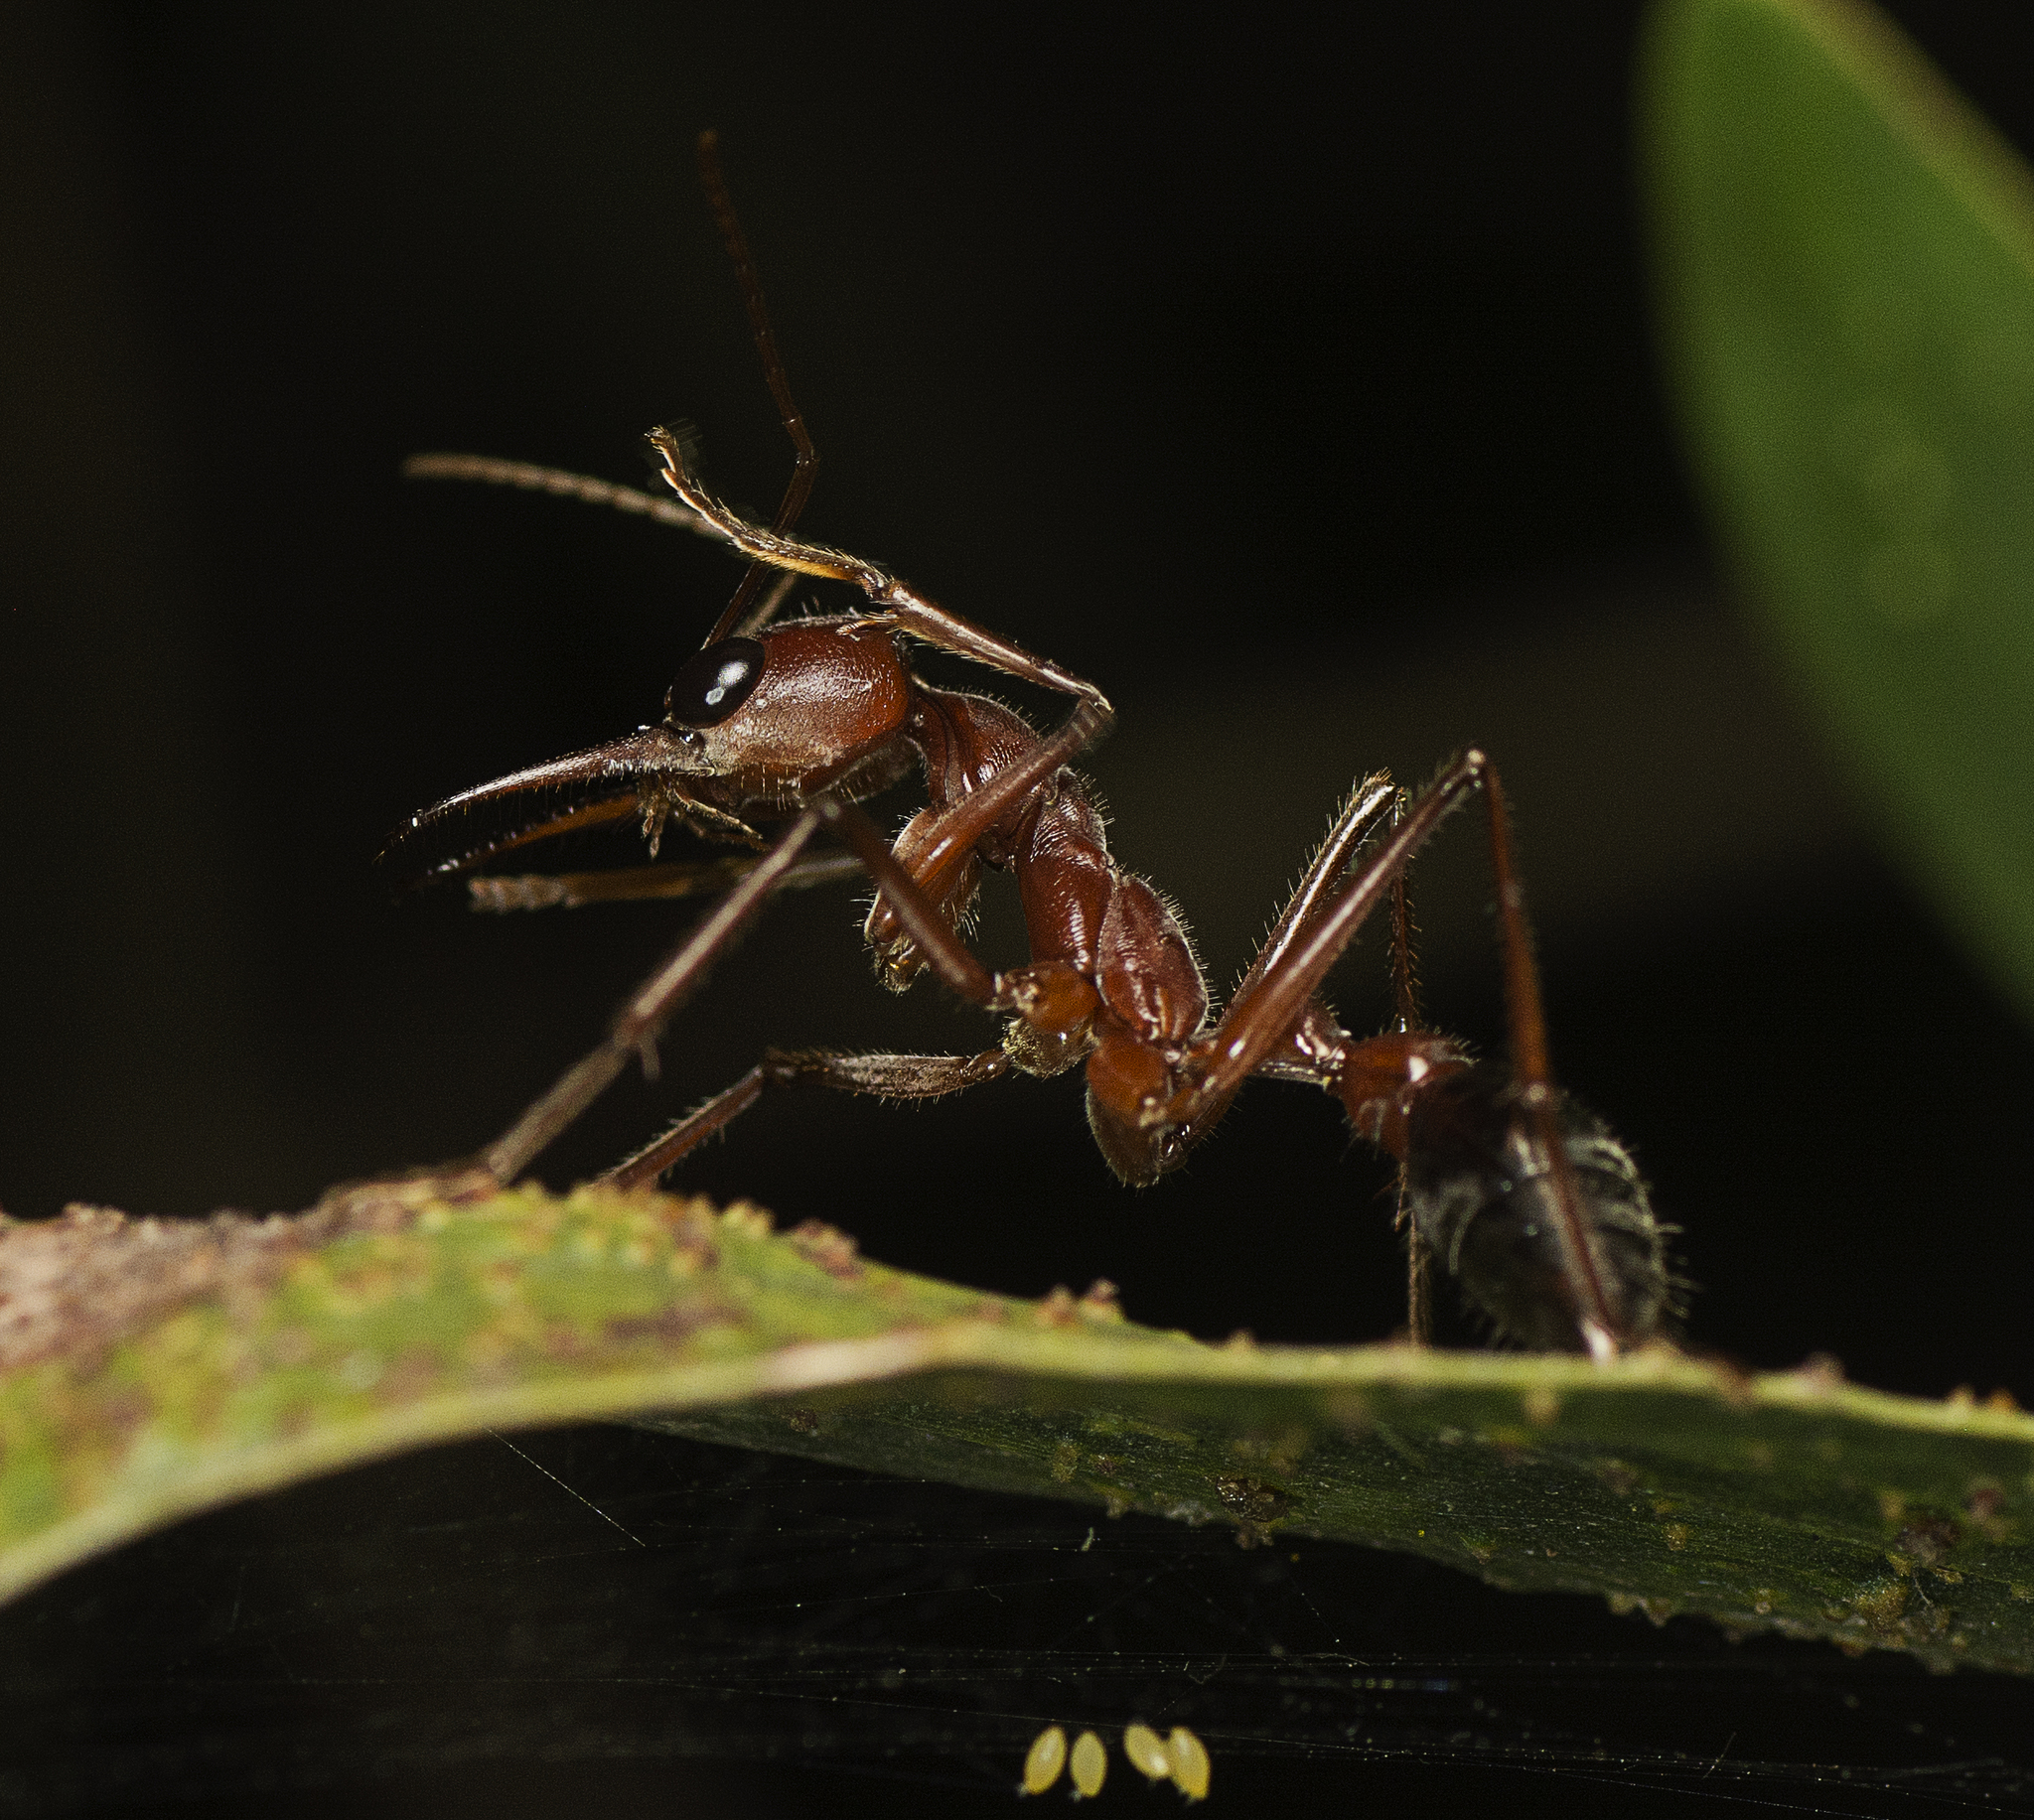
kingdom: Animalia
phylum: Arthropoda
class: Insecta
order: Hymenoptera
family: Formicidae
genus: Myrmecia
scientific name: Myrmecia brevinoda
